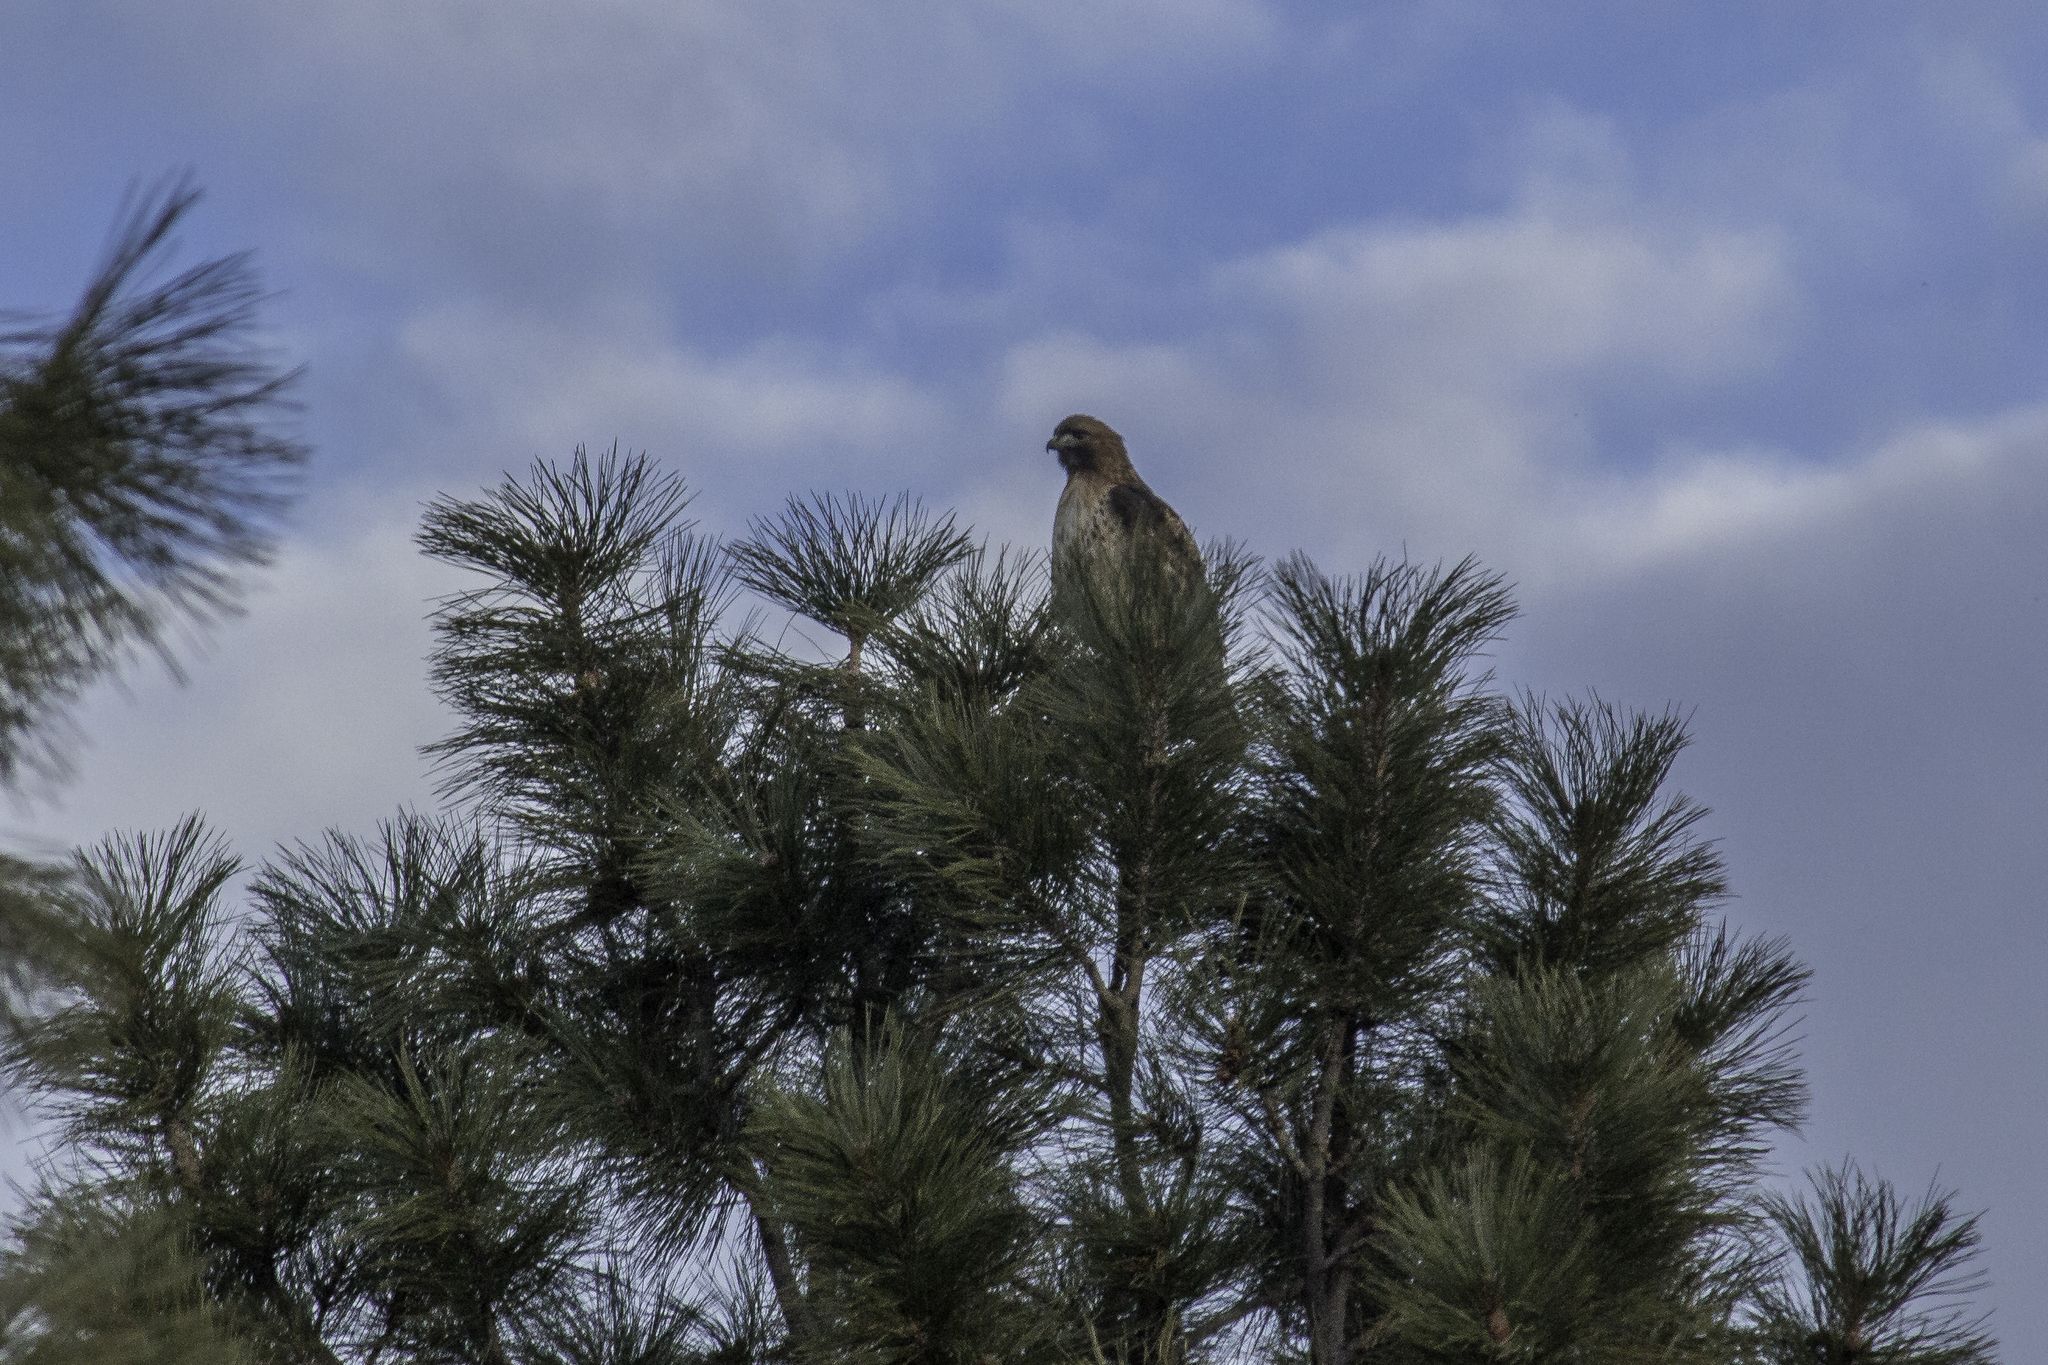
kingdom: Animalia
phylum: Chordata
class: Aves
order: Accipitriformes
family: Accipitridae
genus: Buteo
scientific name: Buteo jamaicensis
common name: Red-tailed hawk
